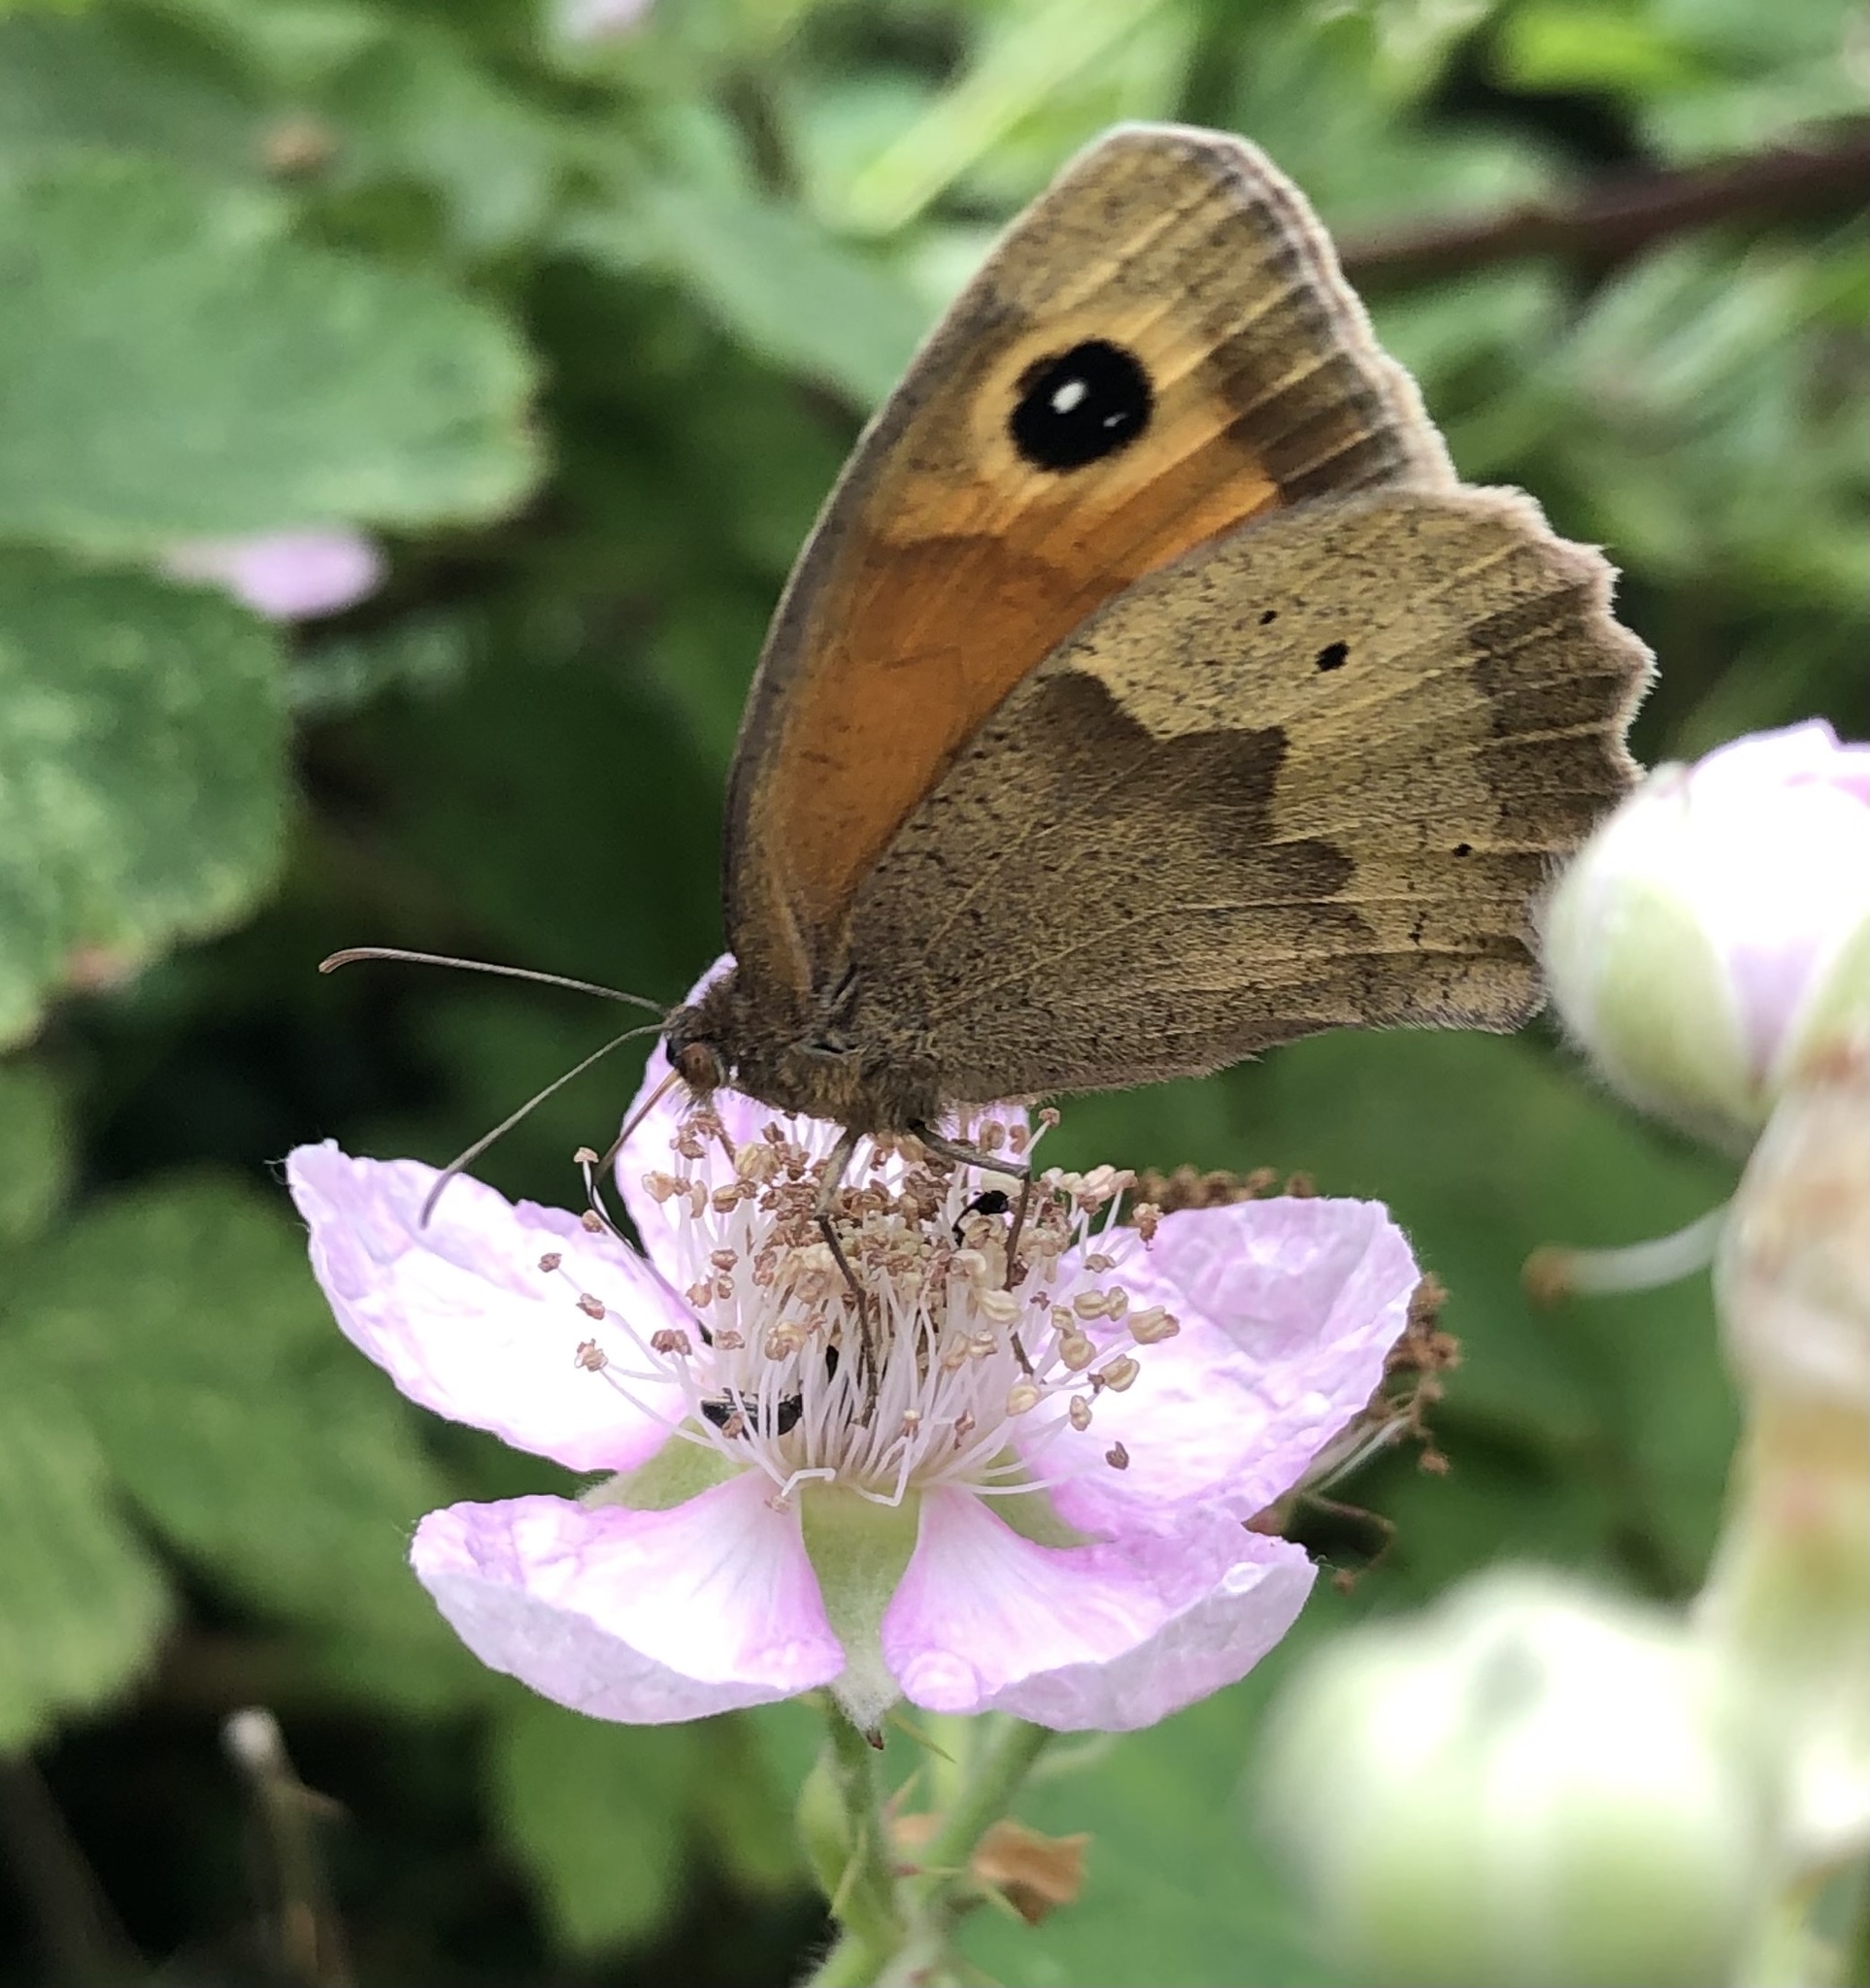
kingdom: Animalia
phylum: Arthropoda
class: Insecta
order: Lepidoptera
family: Nymphalidae
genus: Maniola
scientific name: Maniola jurtina
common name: Meadow brown
